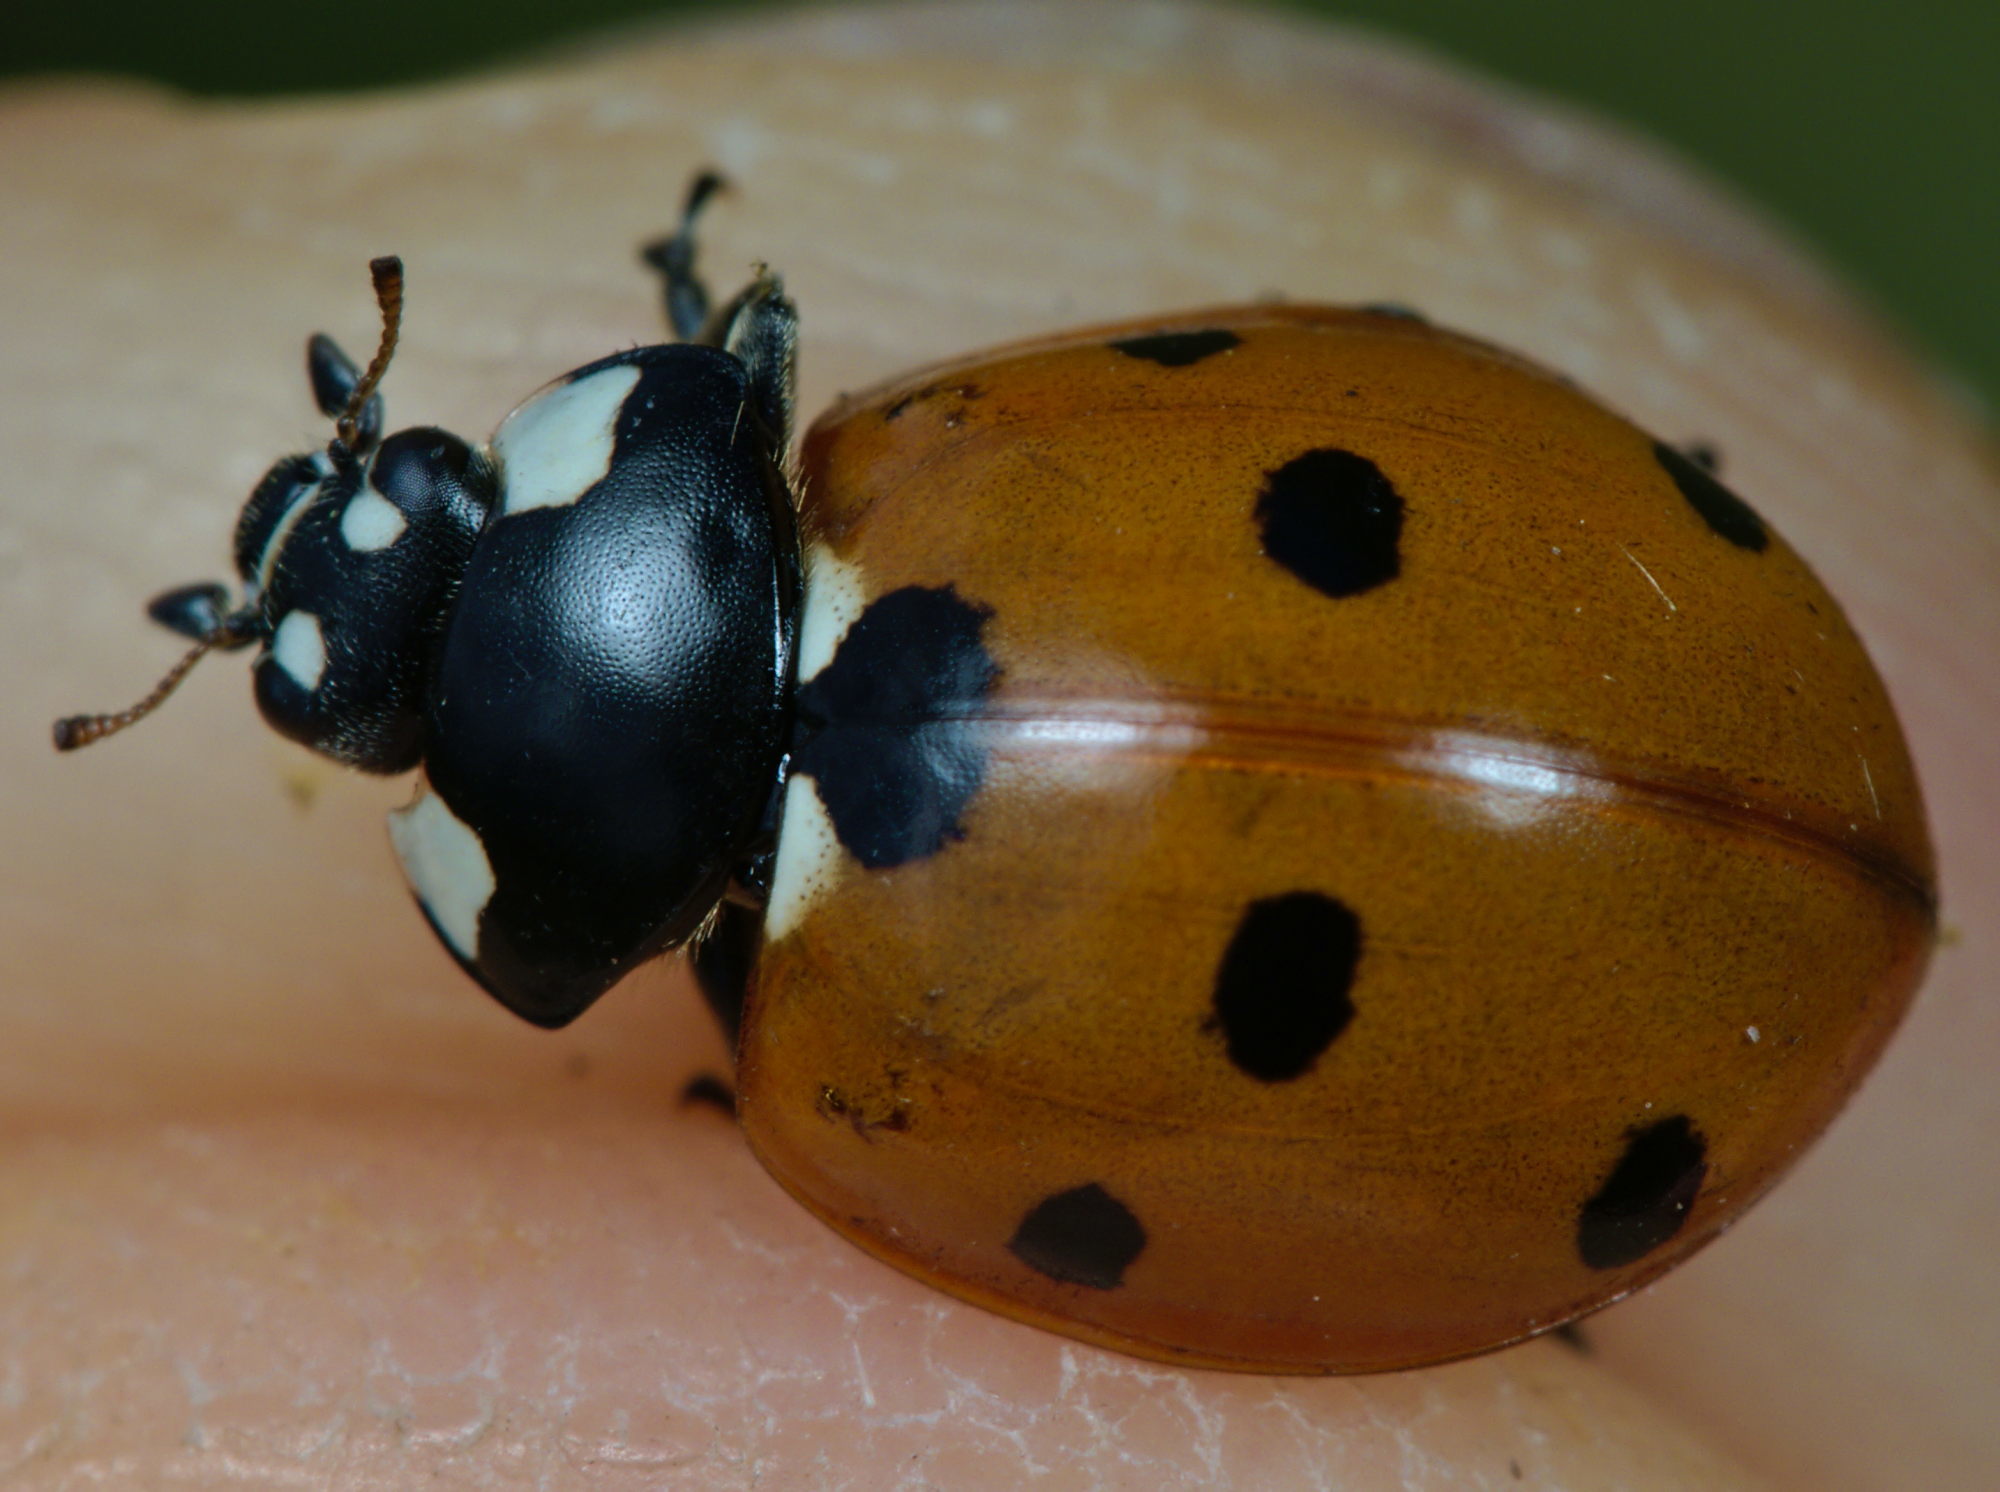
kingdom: Animalia
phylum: Arthropoda
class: Insecta
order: Coleoptera
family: Coccinellidae
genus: Coccinella
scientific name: Coccinella septempunctata
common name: Sevenspotted lady beetle
